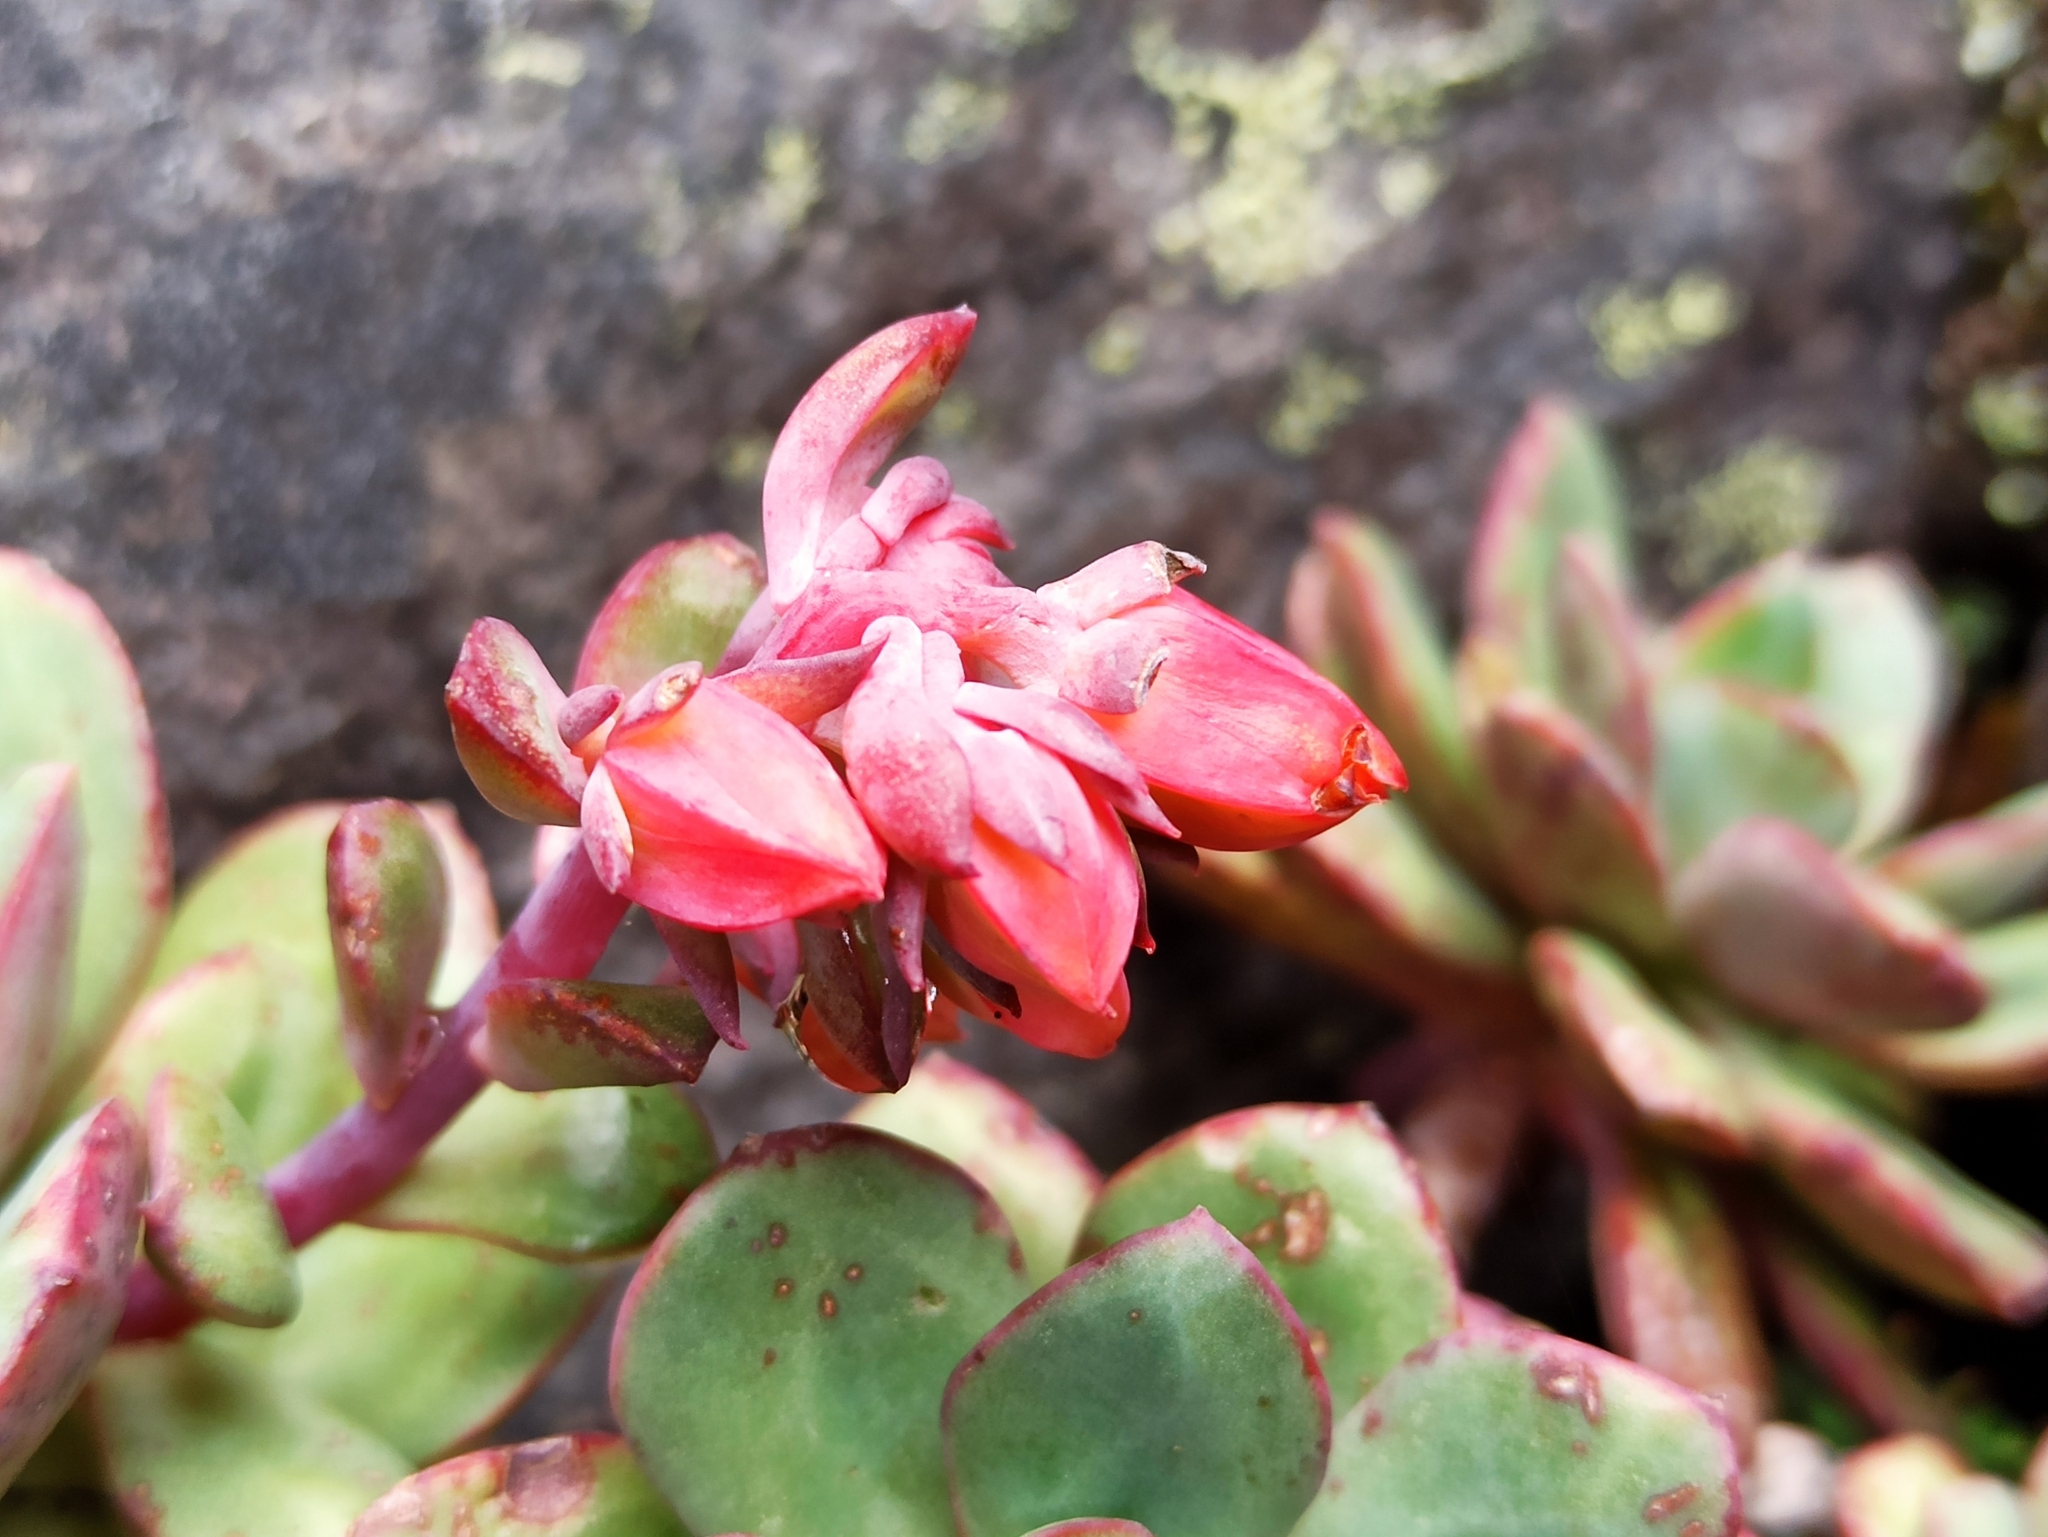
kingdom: Plantae
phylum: Tracheophyta
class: Magnoliopsida
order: Saxifragales
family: Crassulaceae
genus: Echeveria
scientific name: Echeveria quitensis
